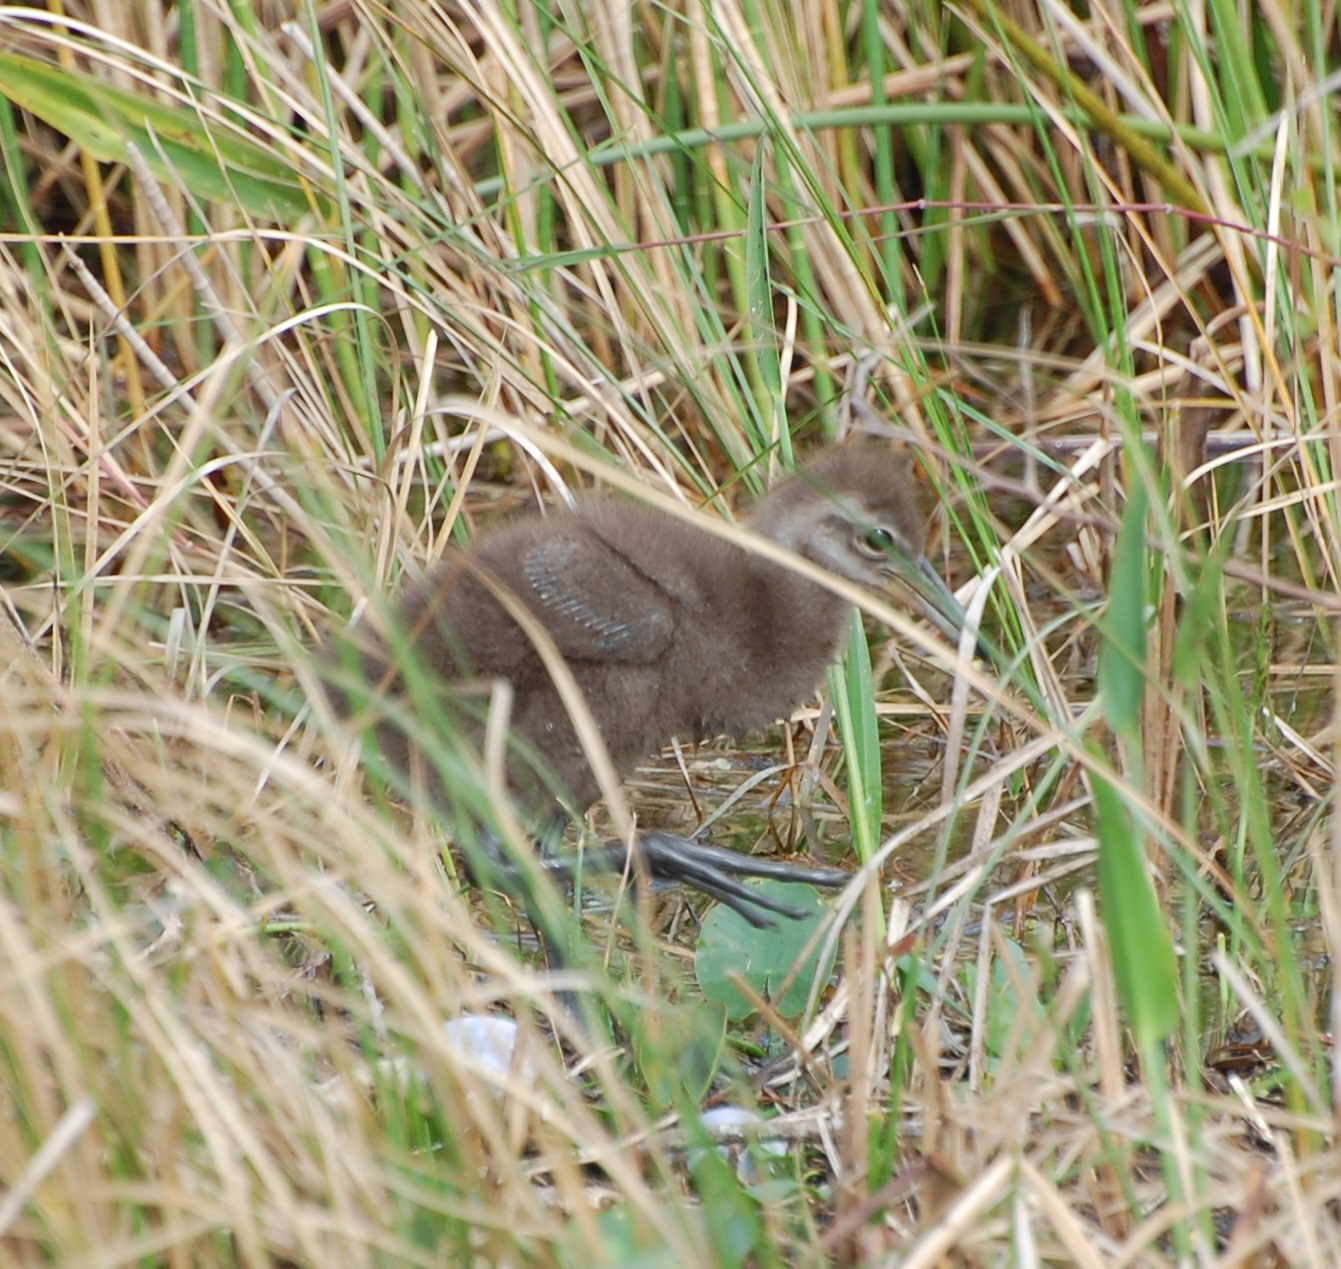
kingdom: Animalia
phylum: Chordata
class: Aves
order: Gruiformes
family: Aramidae
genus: Aramus
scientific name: Aramus guarauna
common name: Limpkin
